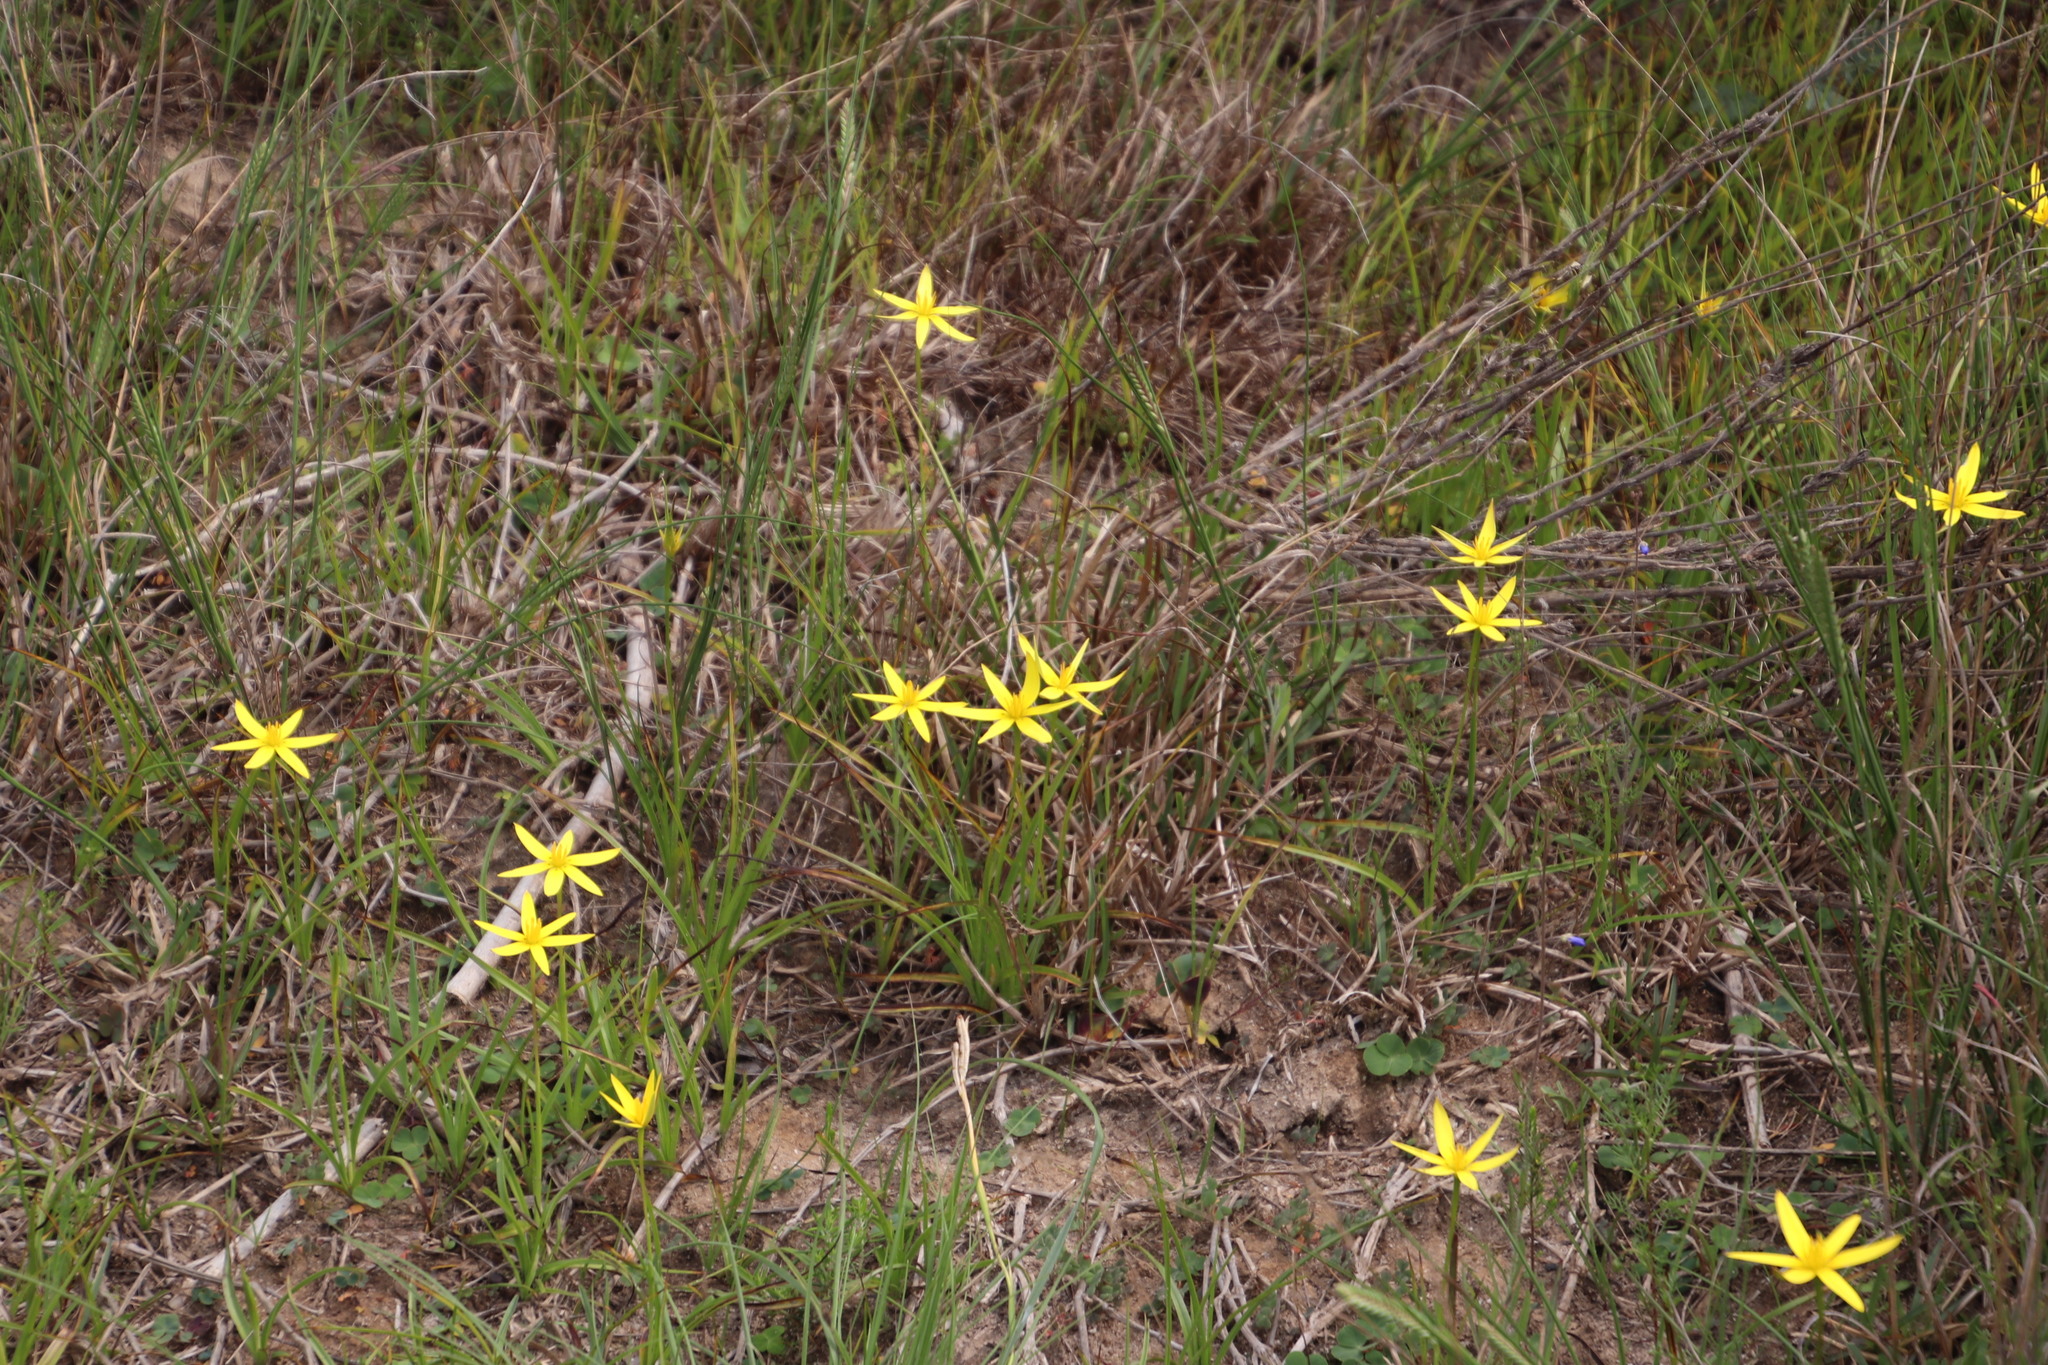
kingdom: Plantae
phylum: Tracheophyta
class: Liliopsida
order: Asparagales
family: Hypoxidaceae
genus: Pauridia
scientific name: Pauridia capensis
